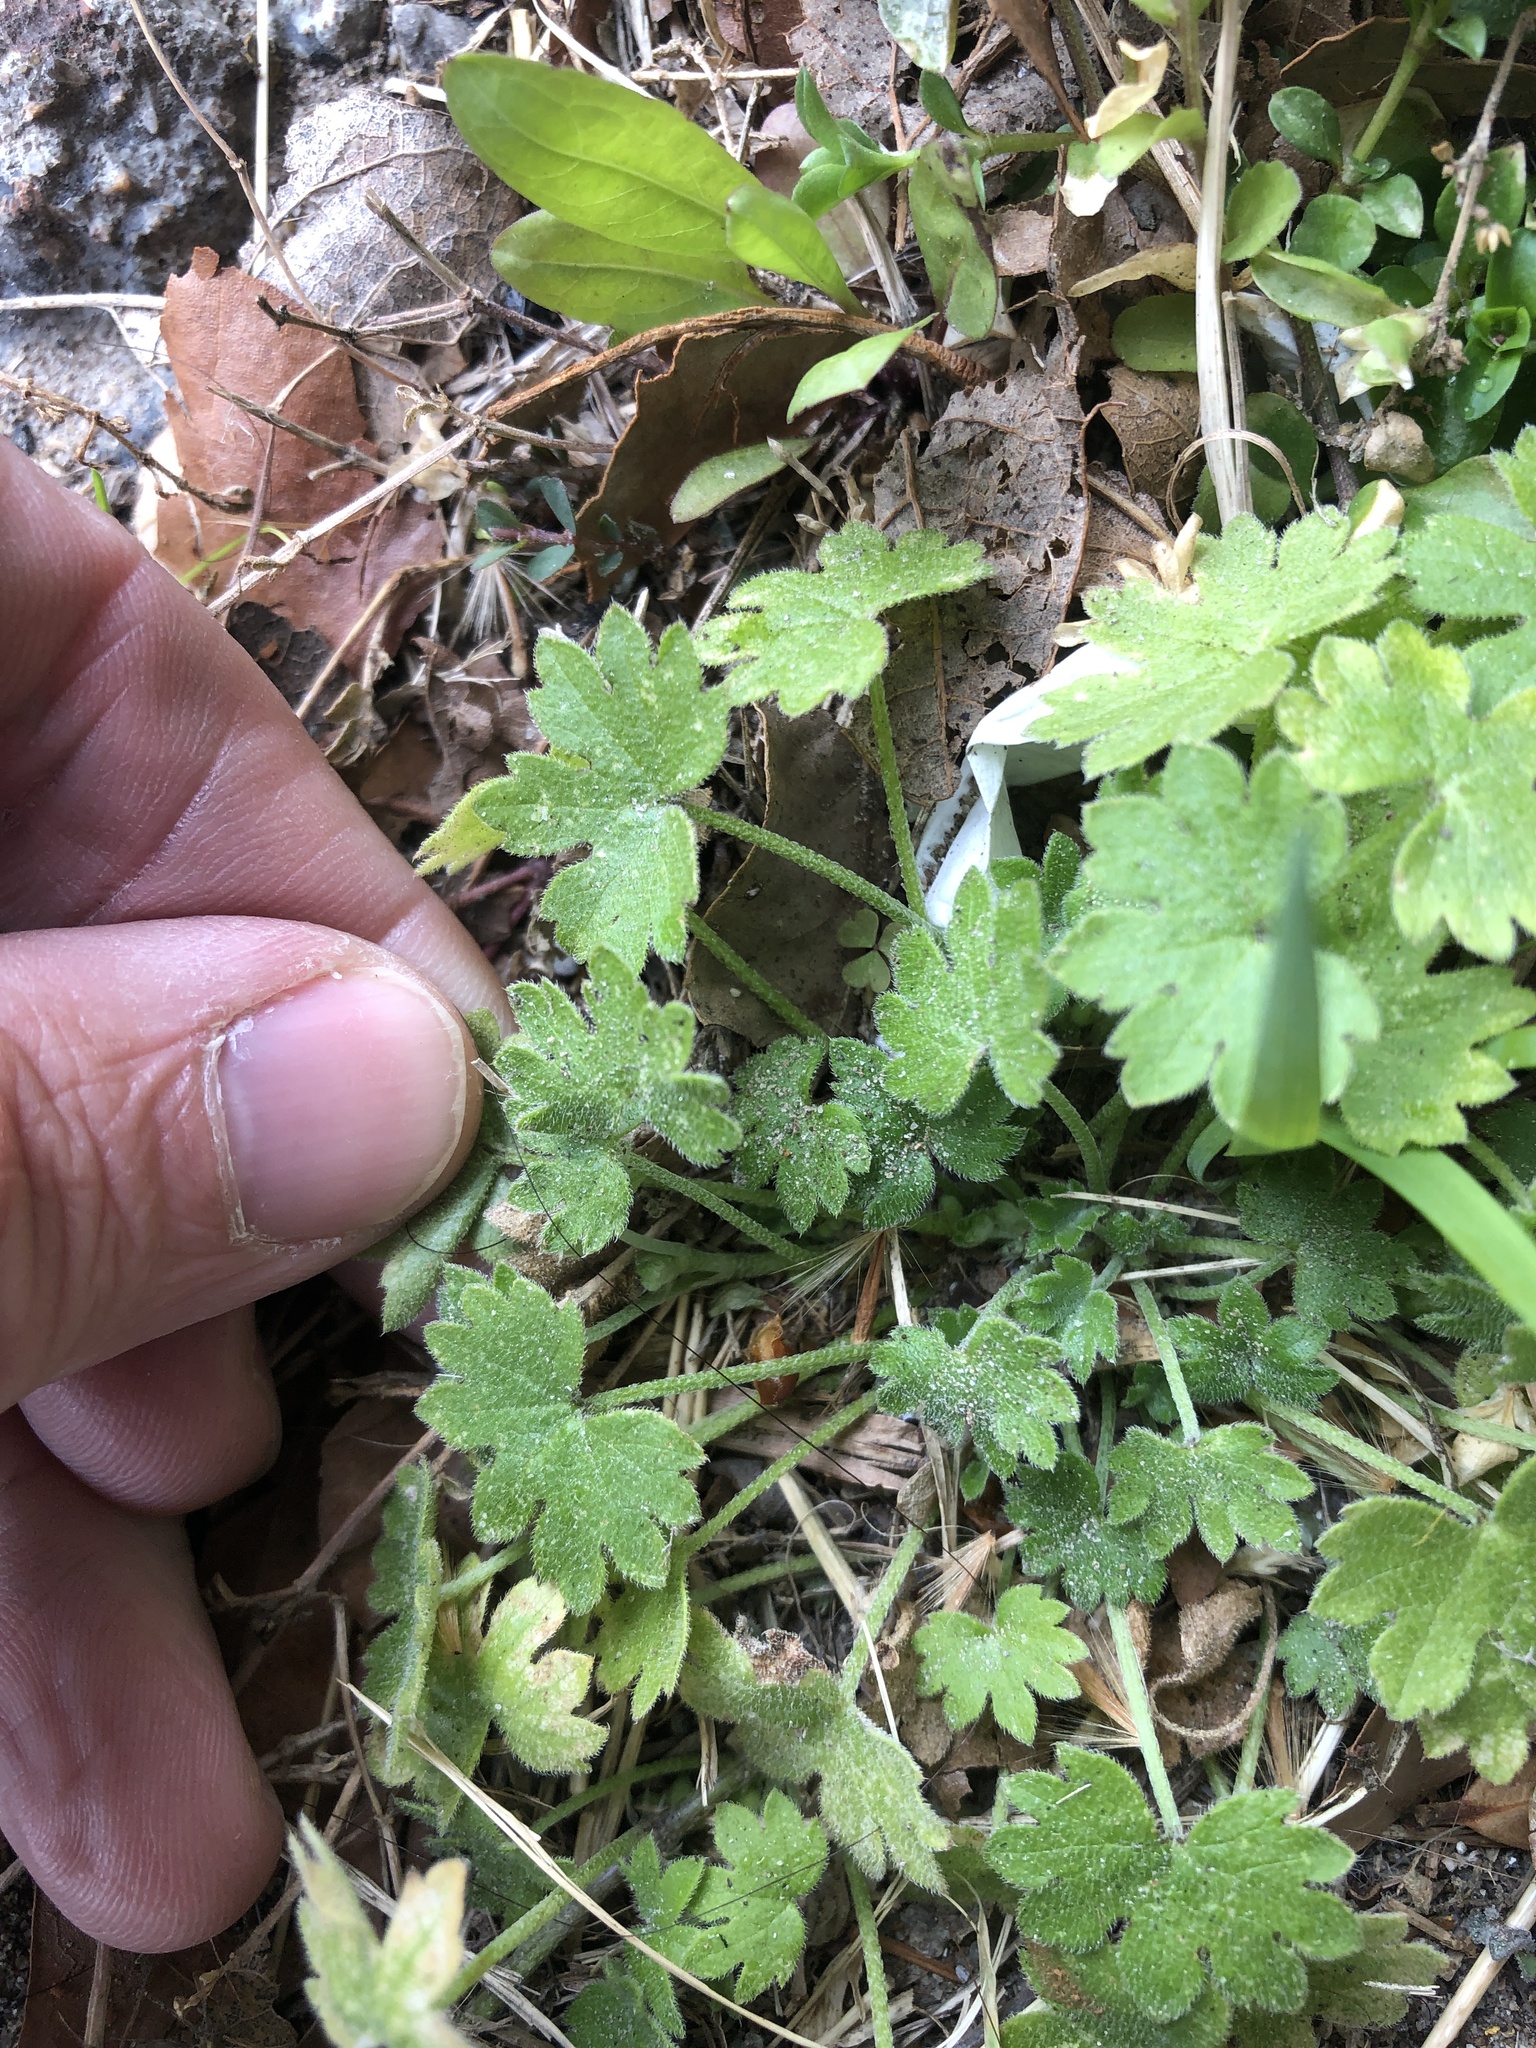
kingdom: Plantae
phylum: Tracheophyta
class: Magnoliopsida
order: Apiales
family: Apiaceae
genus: Bowlesia
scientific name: Bowlesia incana
